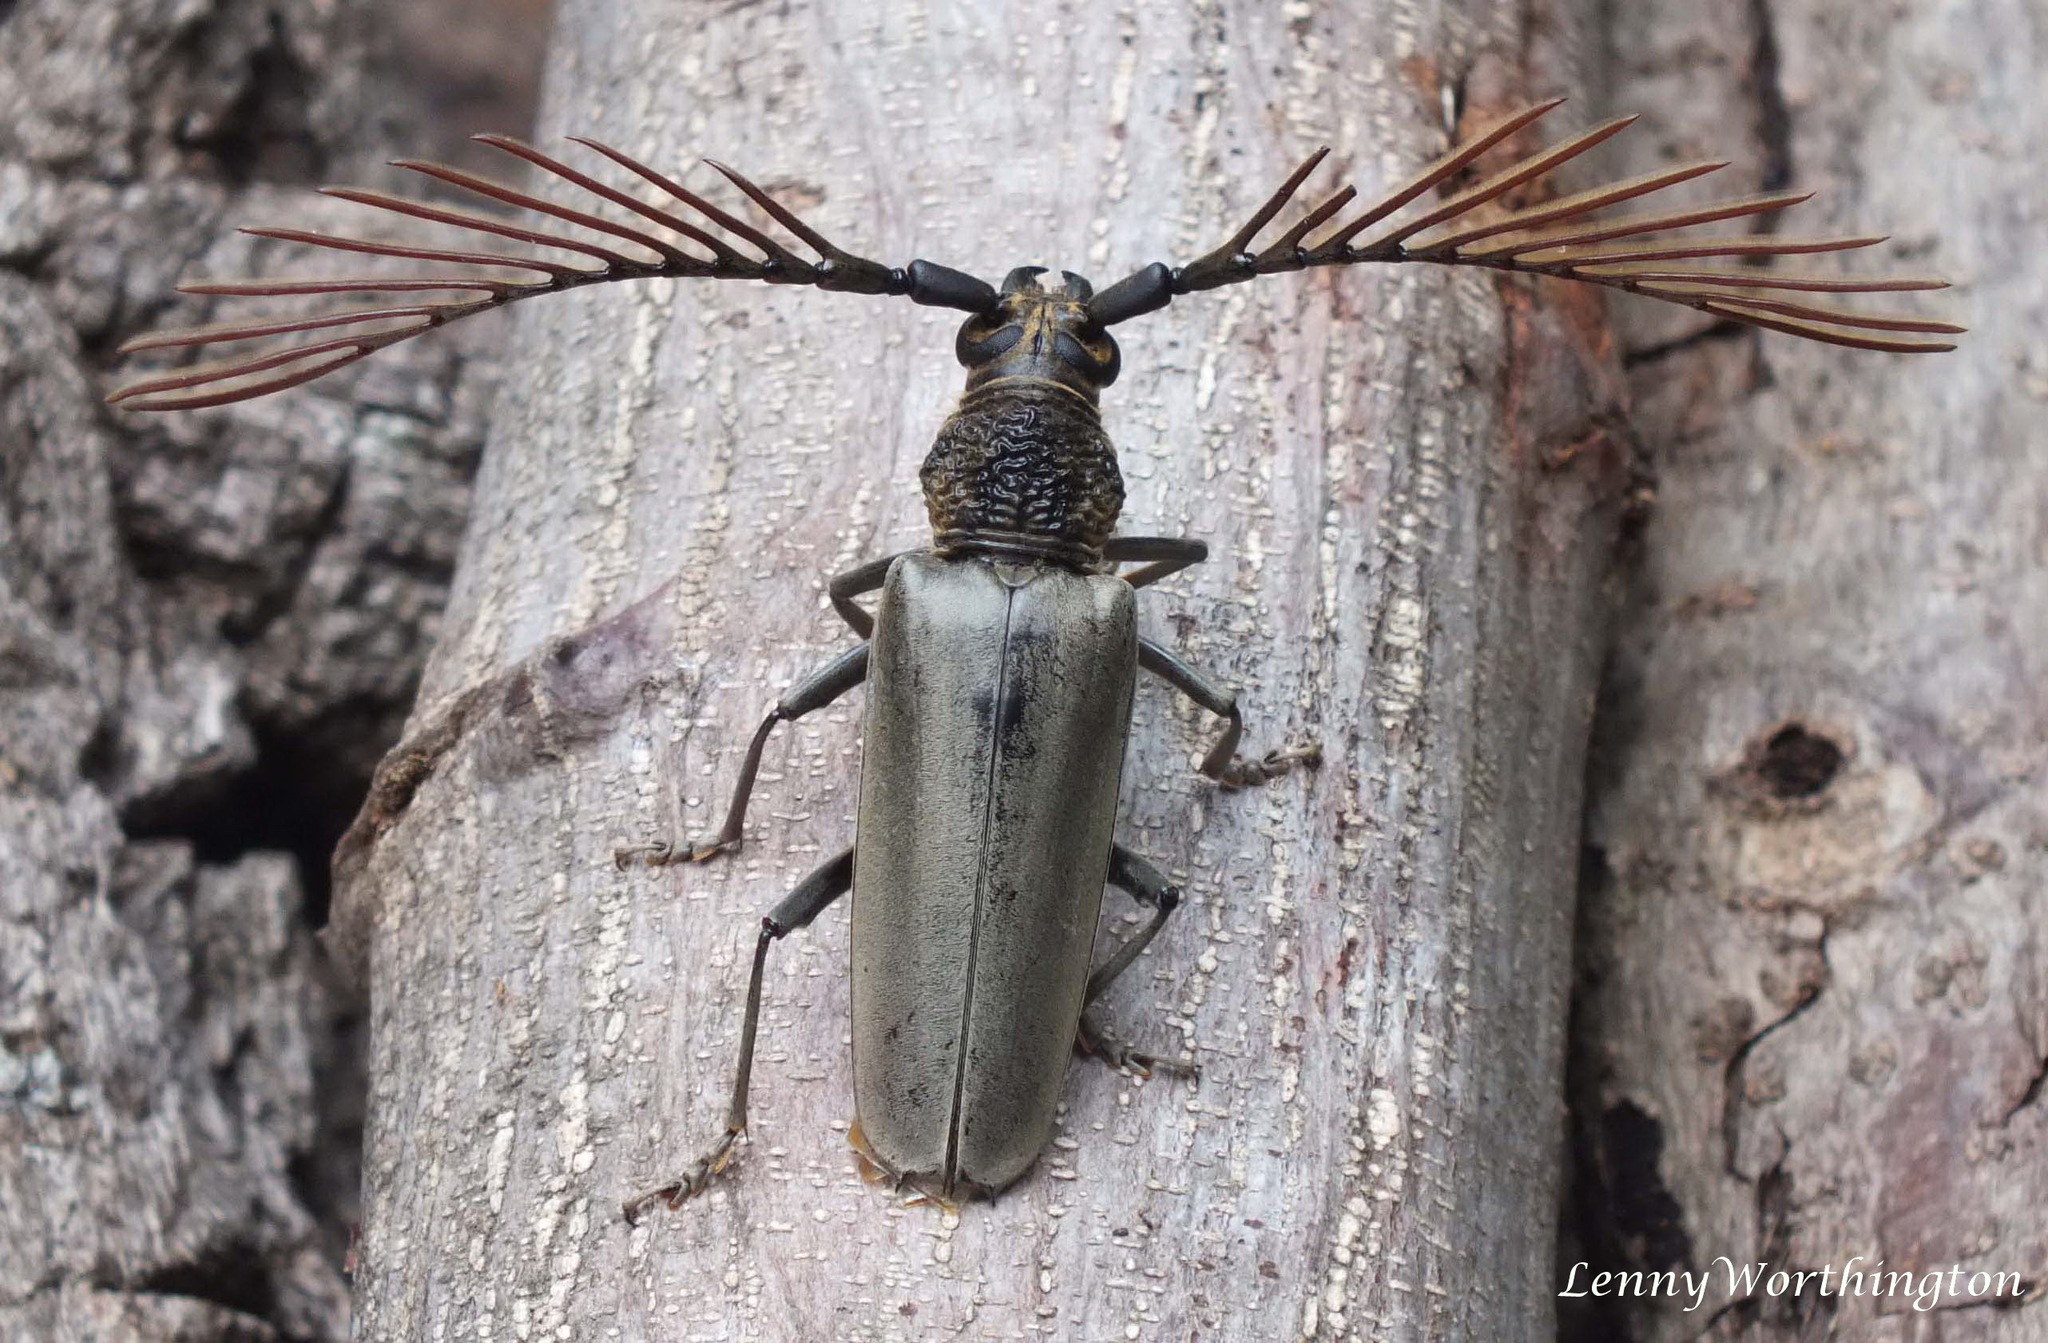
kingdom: Animalia
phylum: Arthropoda
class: Insecta
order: Coleoptera
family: Cerambycidae
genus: Cyriopalus
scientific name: Cyriopalus wallacei
